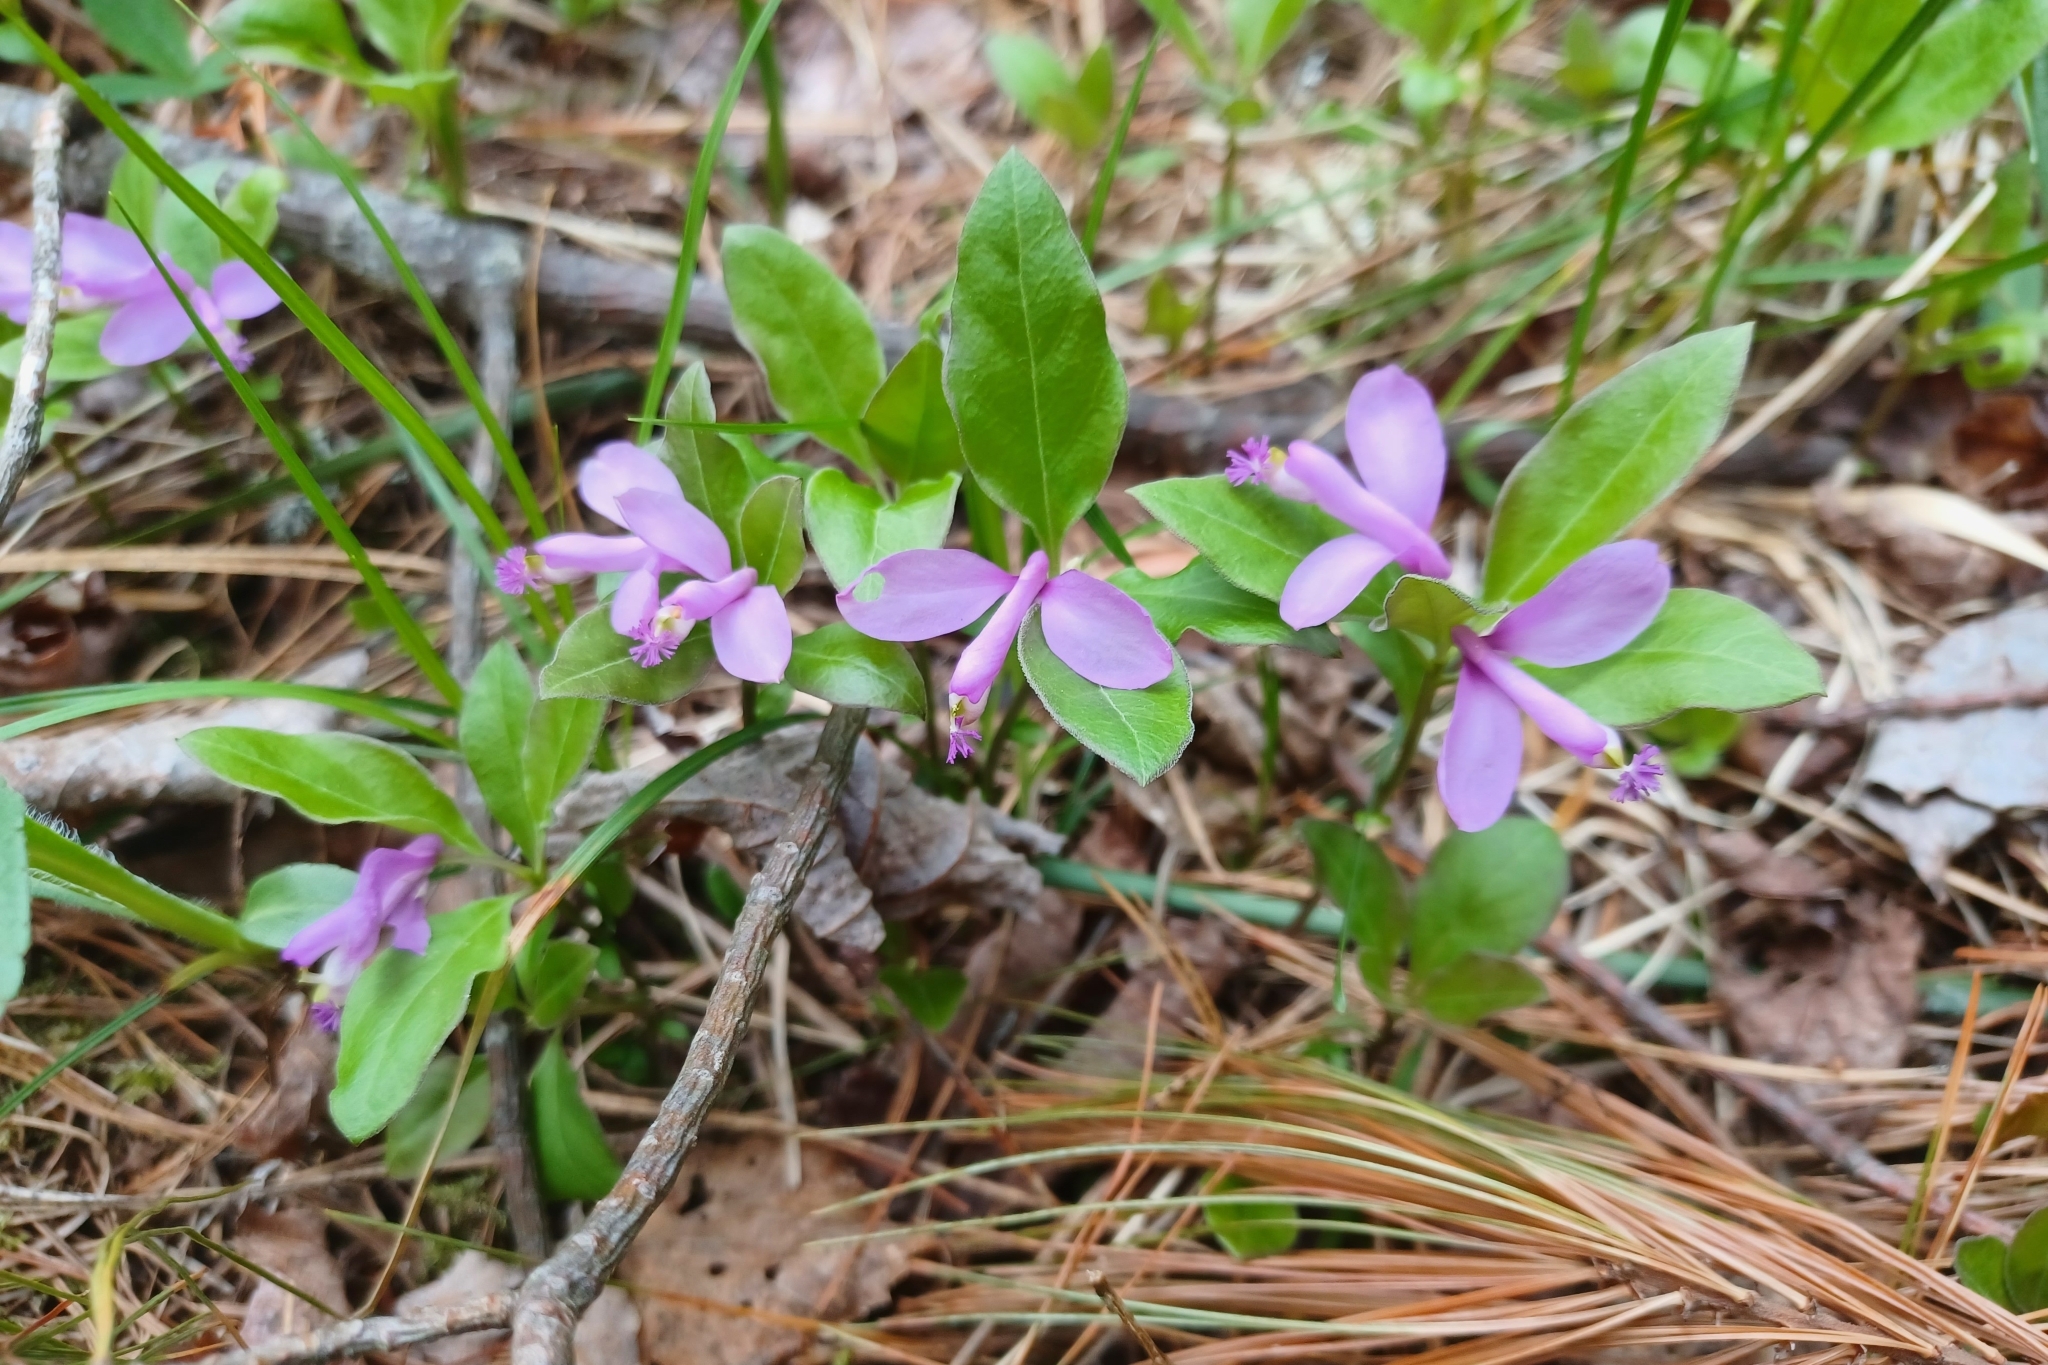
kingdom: Plantae
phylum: Tracheophyta
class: Magnoliopsida
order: Fabales
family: Polygalaceae
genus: Polygaloides
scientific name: Polygaloides paucifolia
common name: Bird-on-the-wing
